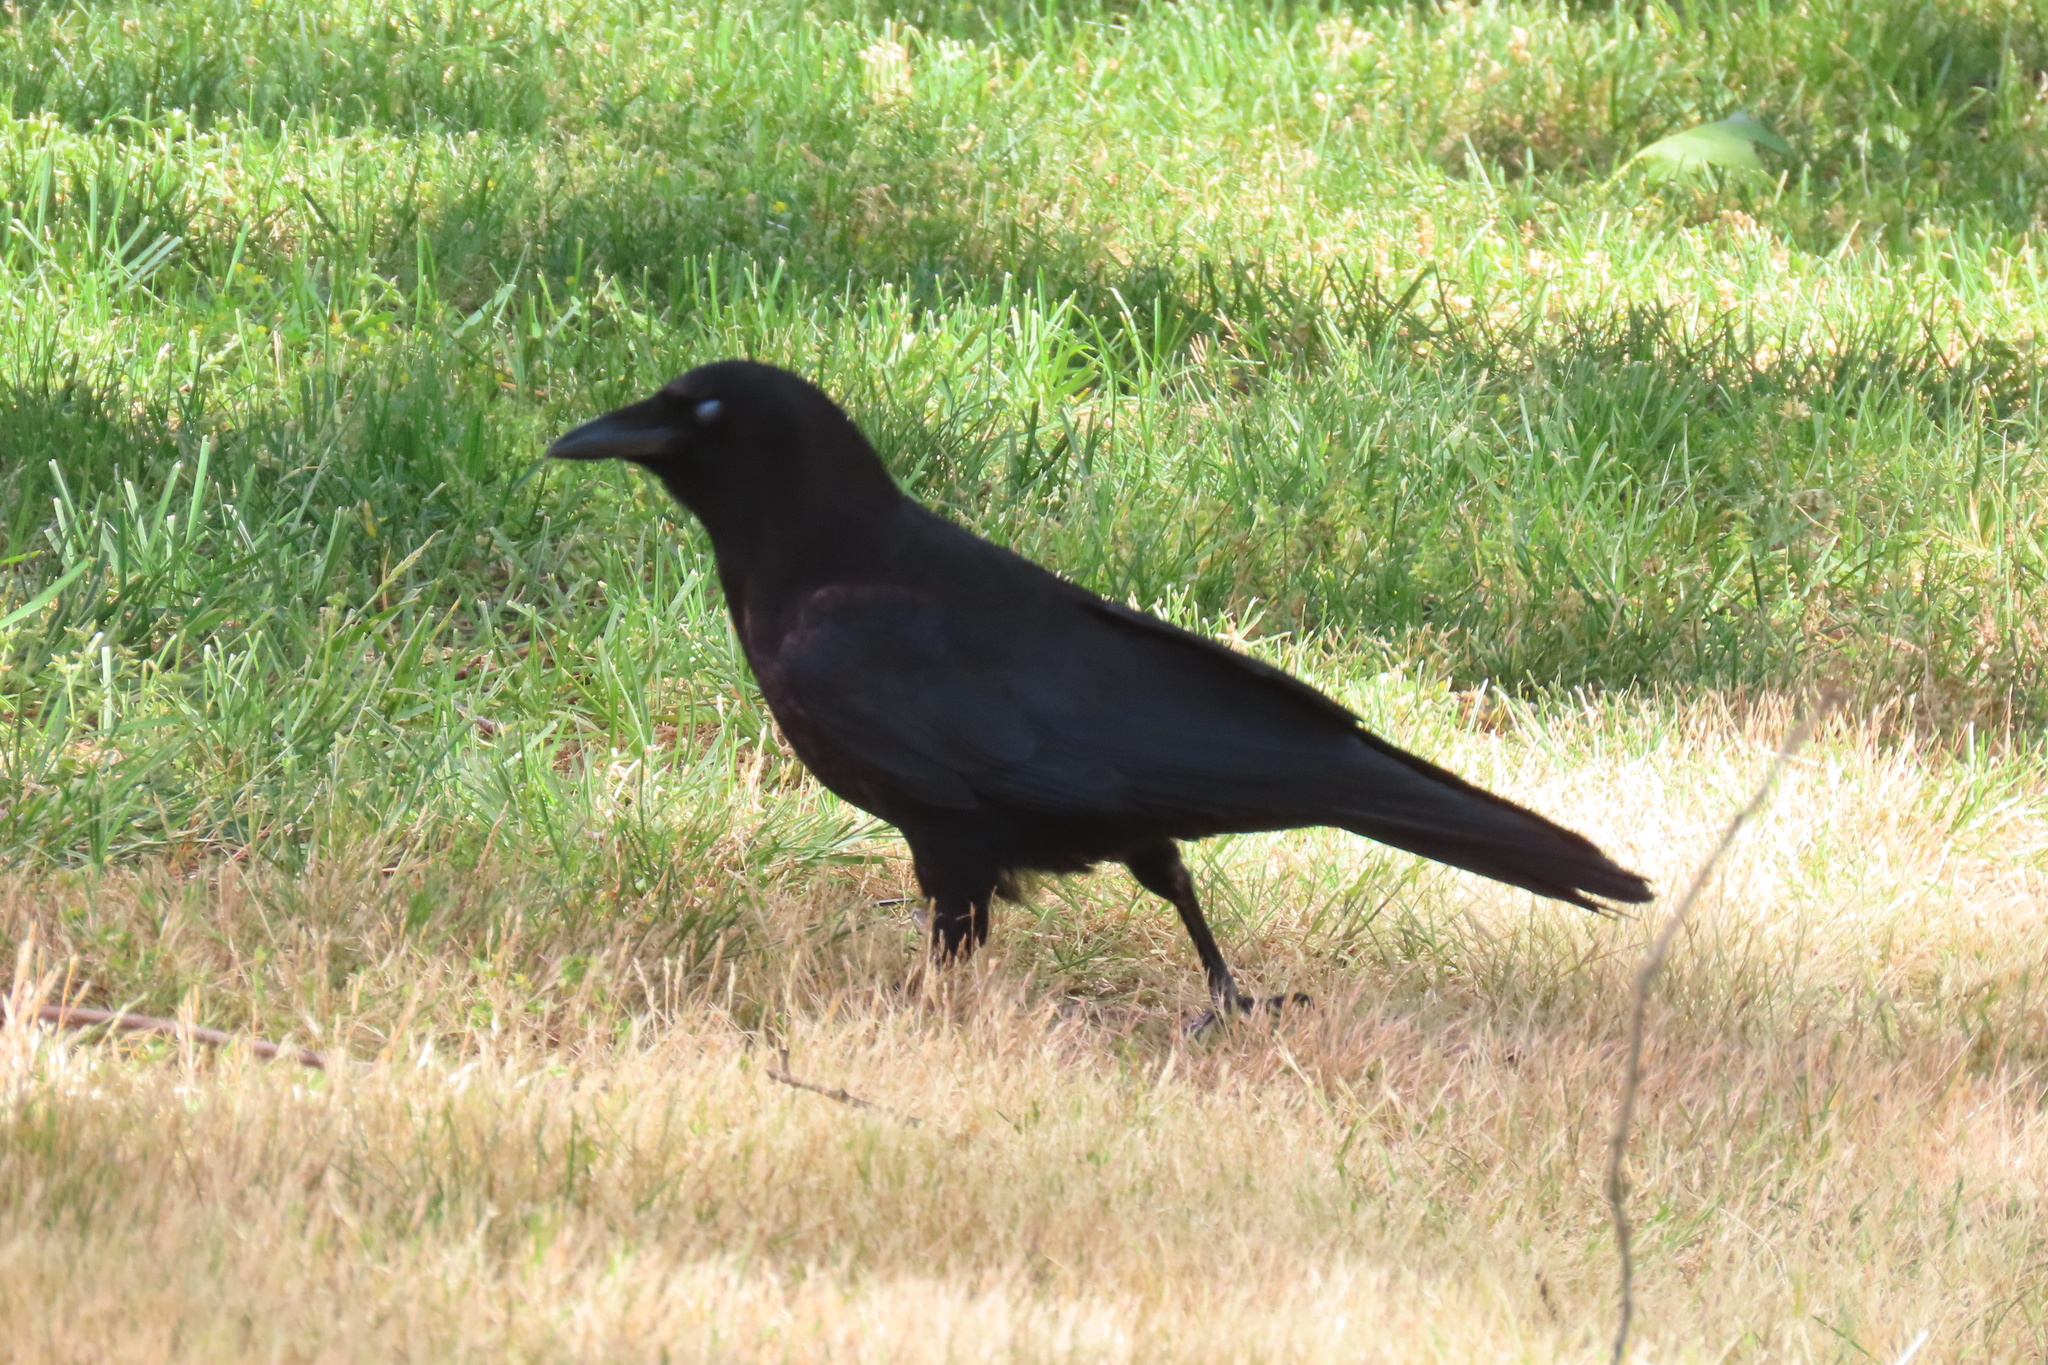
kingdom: Animalia
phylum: Chordata
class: Aves
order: Passeriformes
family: Corvidae
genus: Corvus
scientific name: Corvus brachyrhynchos
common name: American crow
